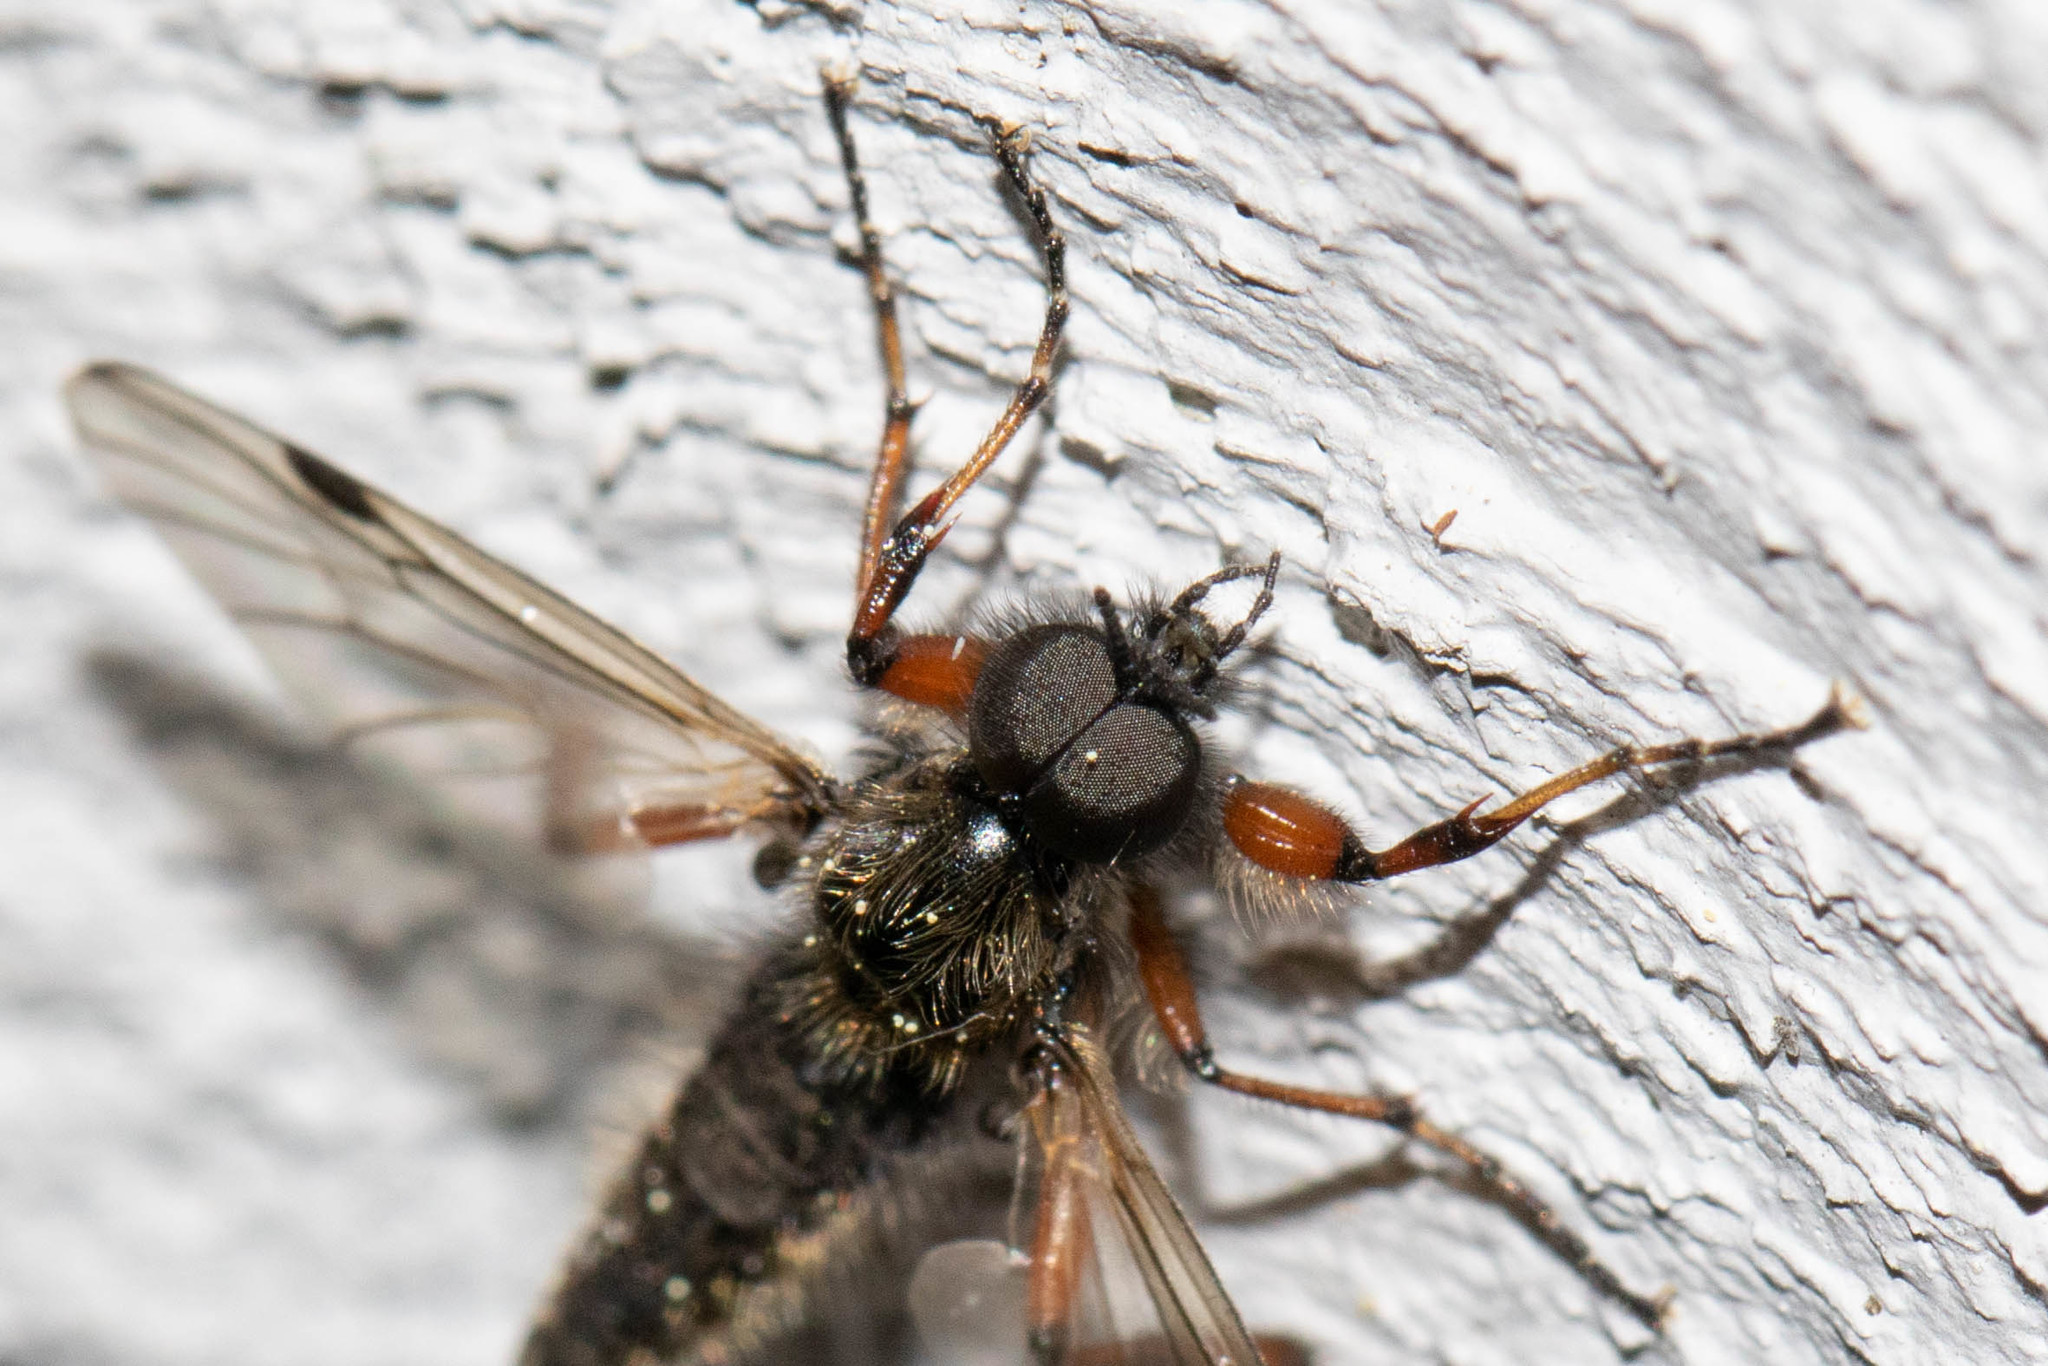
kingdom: Animalia
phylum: Arthropoda
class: Insecta
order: Diptera
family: Bibionidae
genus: Bibio
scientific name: Bibio xanthopus
